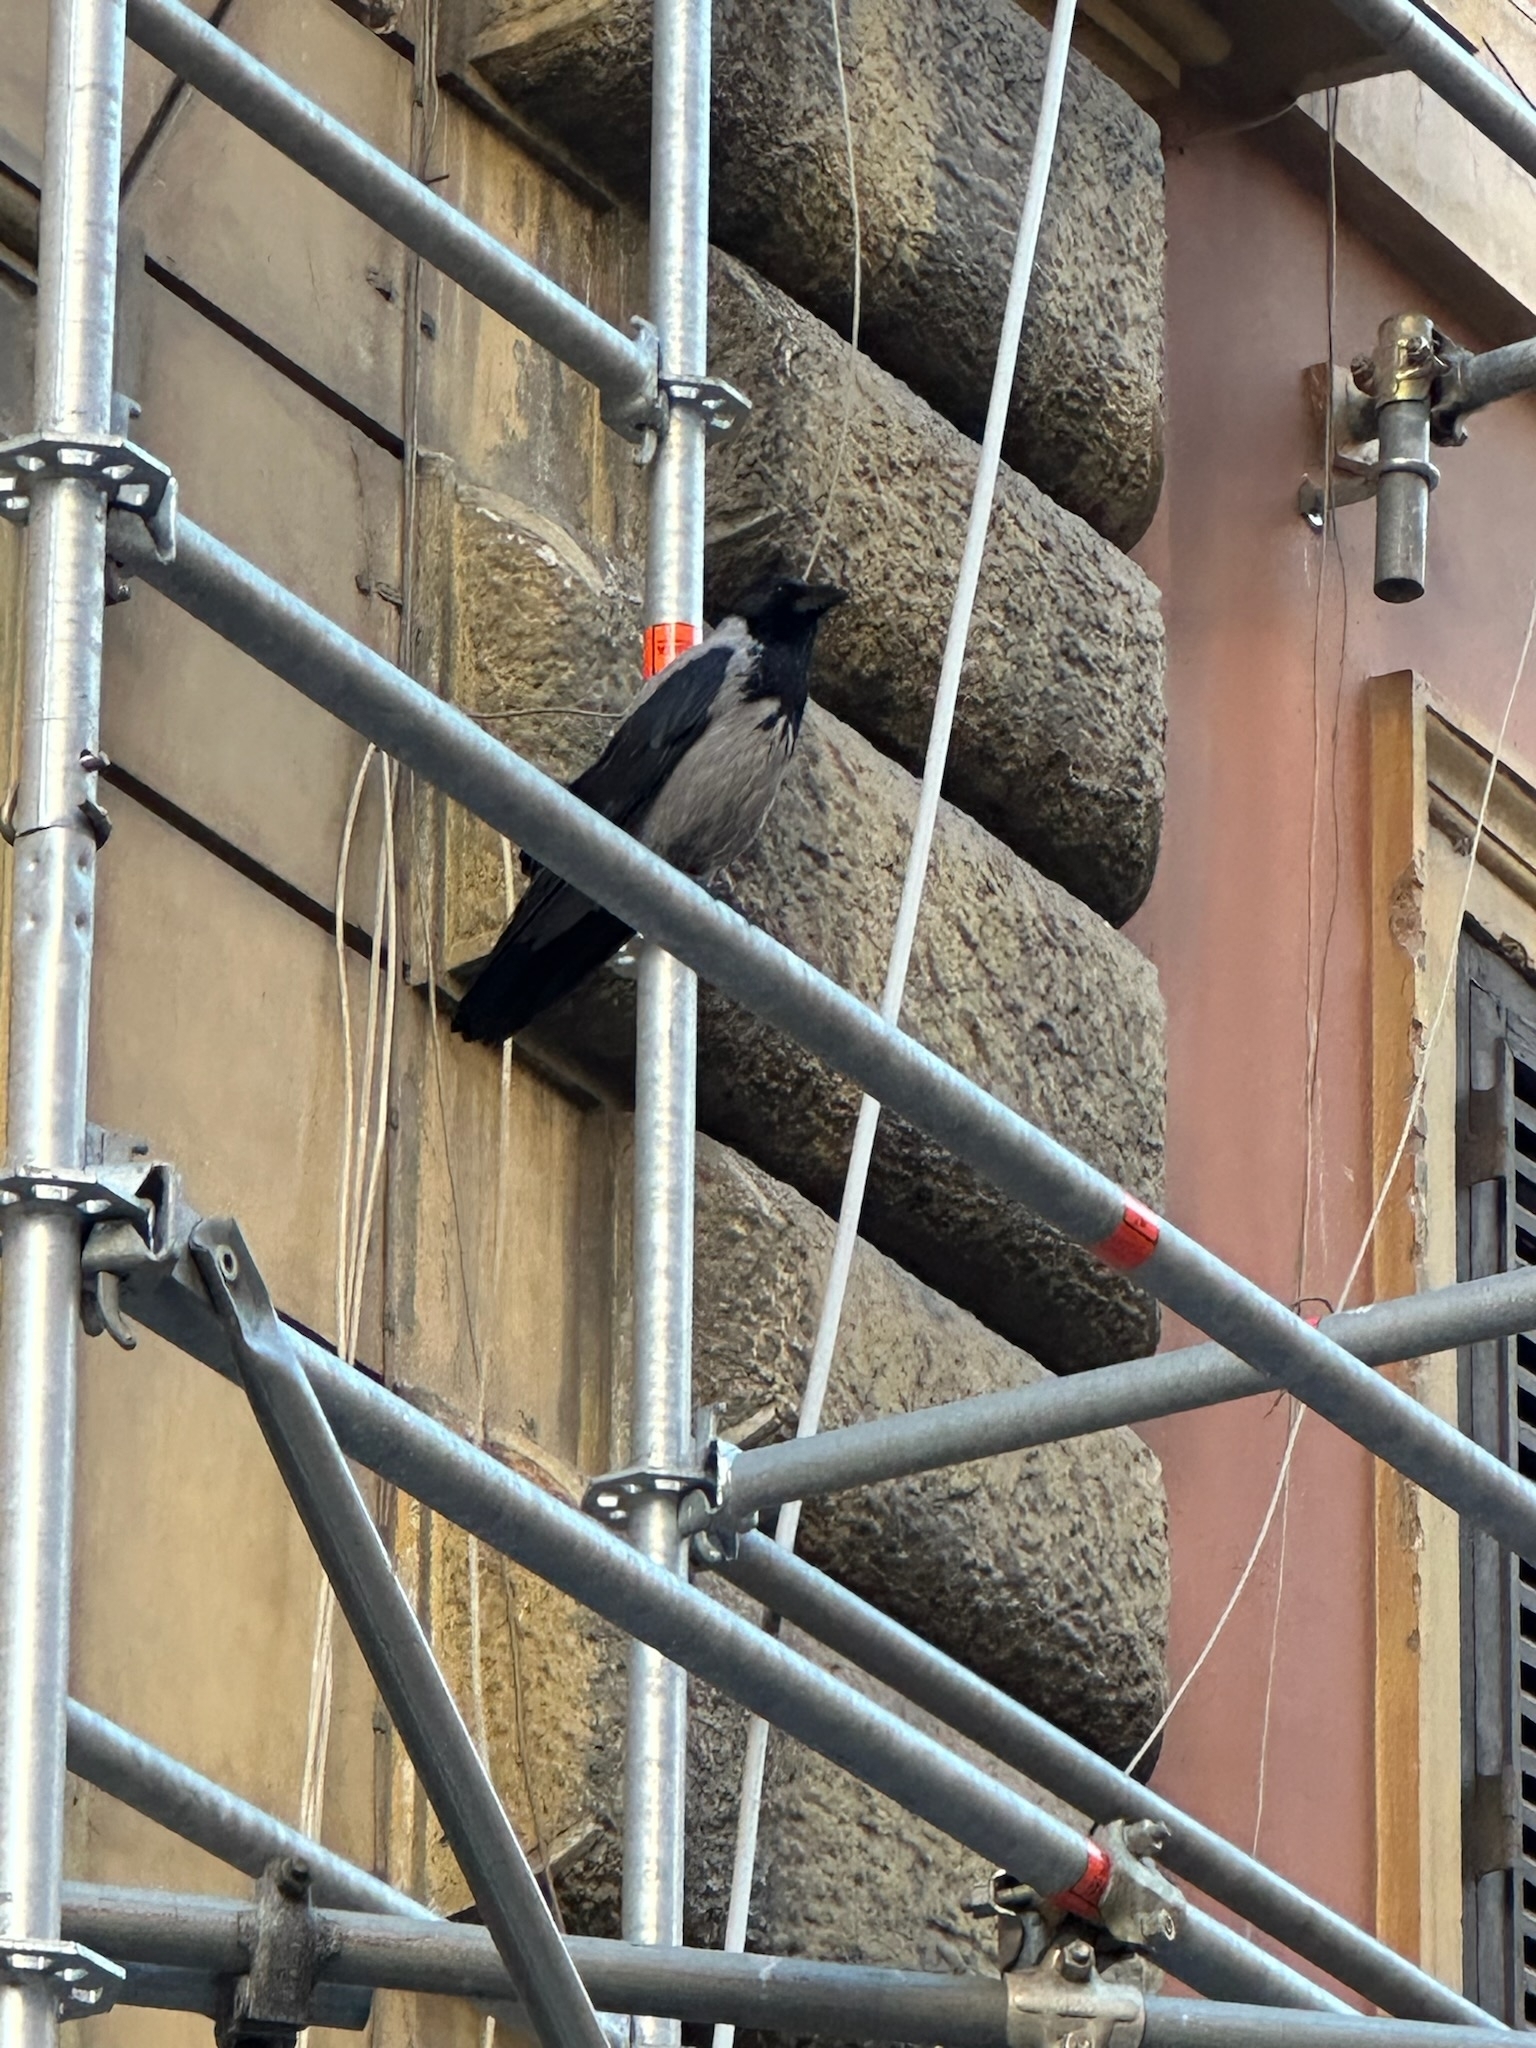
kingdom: Animalia
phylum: Chordata
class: Aves
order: Passeriformes
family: Corvidae
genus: Corvus
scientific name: Corvus cornix
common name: Hooded crow
